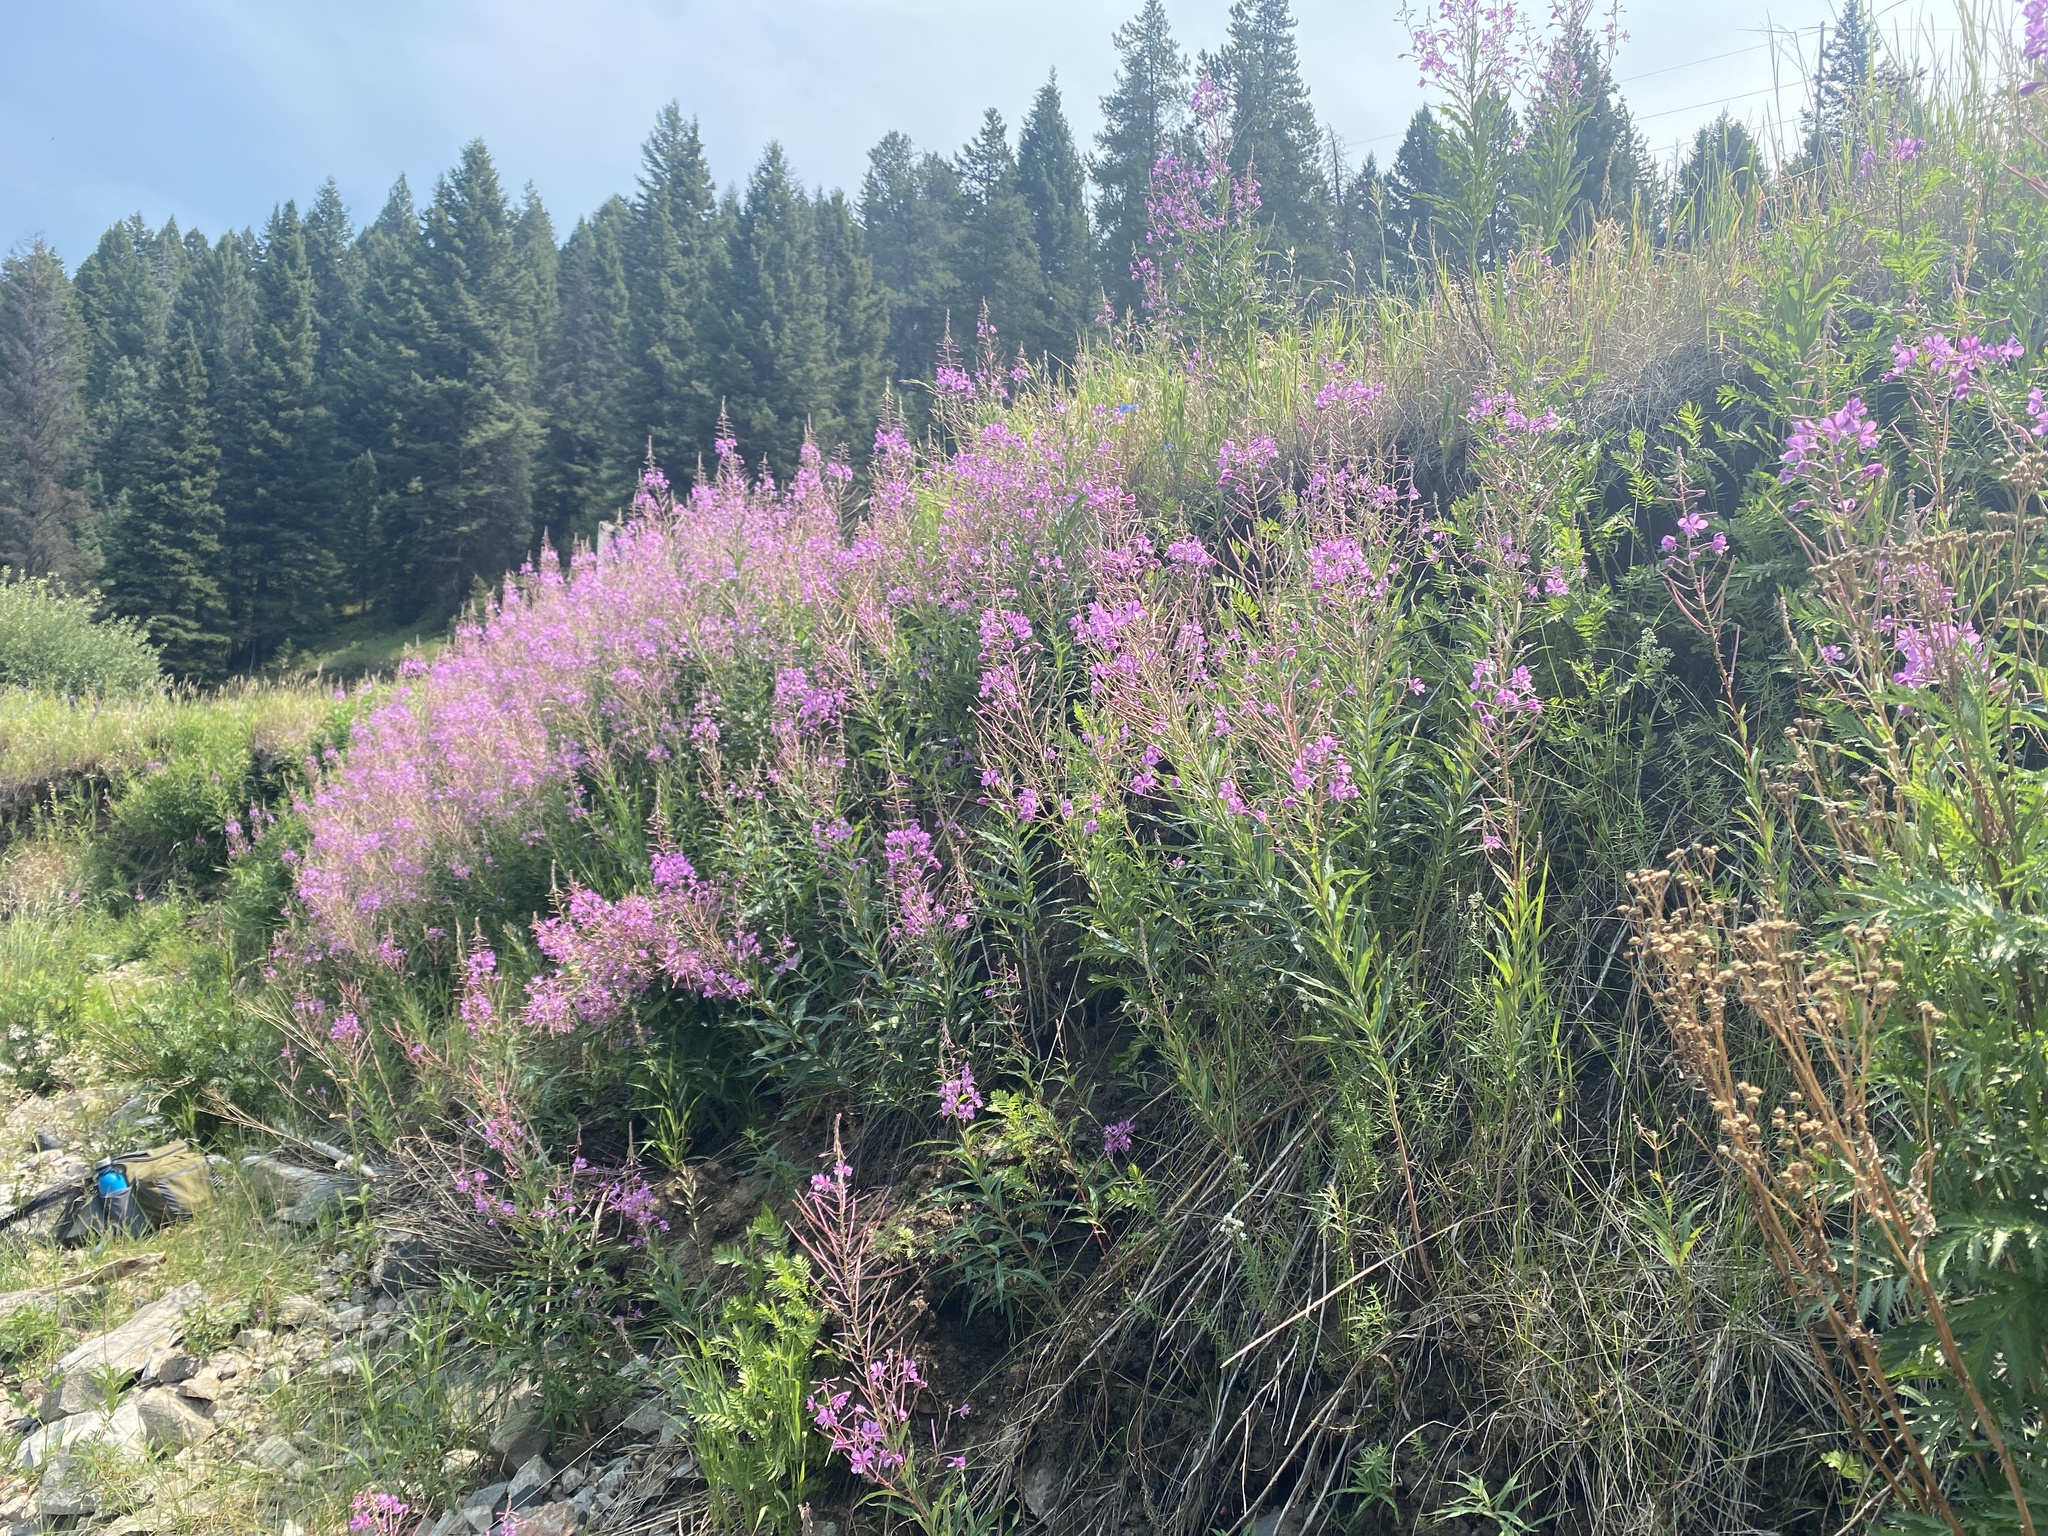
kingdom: Plantae
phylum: Tracheophyta
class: Magnoliopsida
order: Myrtales
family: Onagraceae
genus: Chamaenerion
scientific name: Chamaenerion angustifolium
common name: Fireweed
